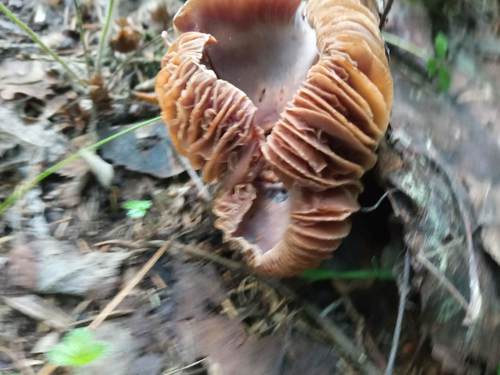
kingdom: Fungi
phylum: Basidiomycota
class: Agaricomycetes
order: Agaricales
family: Cortinariaceae
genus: Cortinarius
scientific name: Cortinarius
